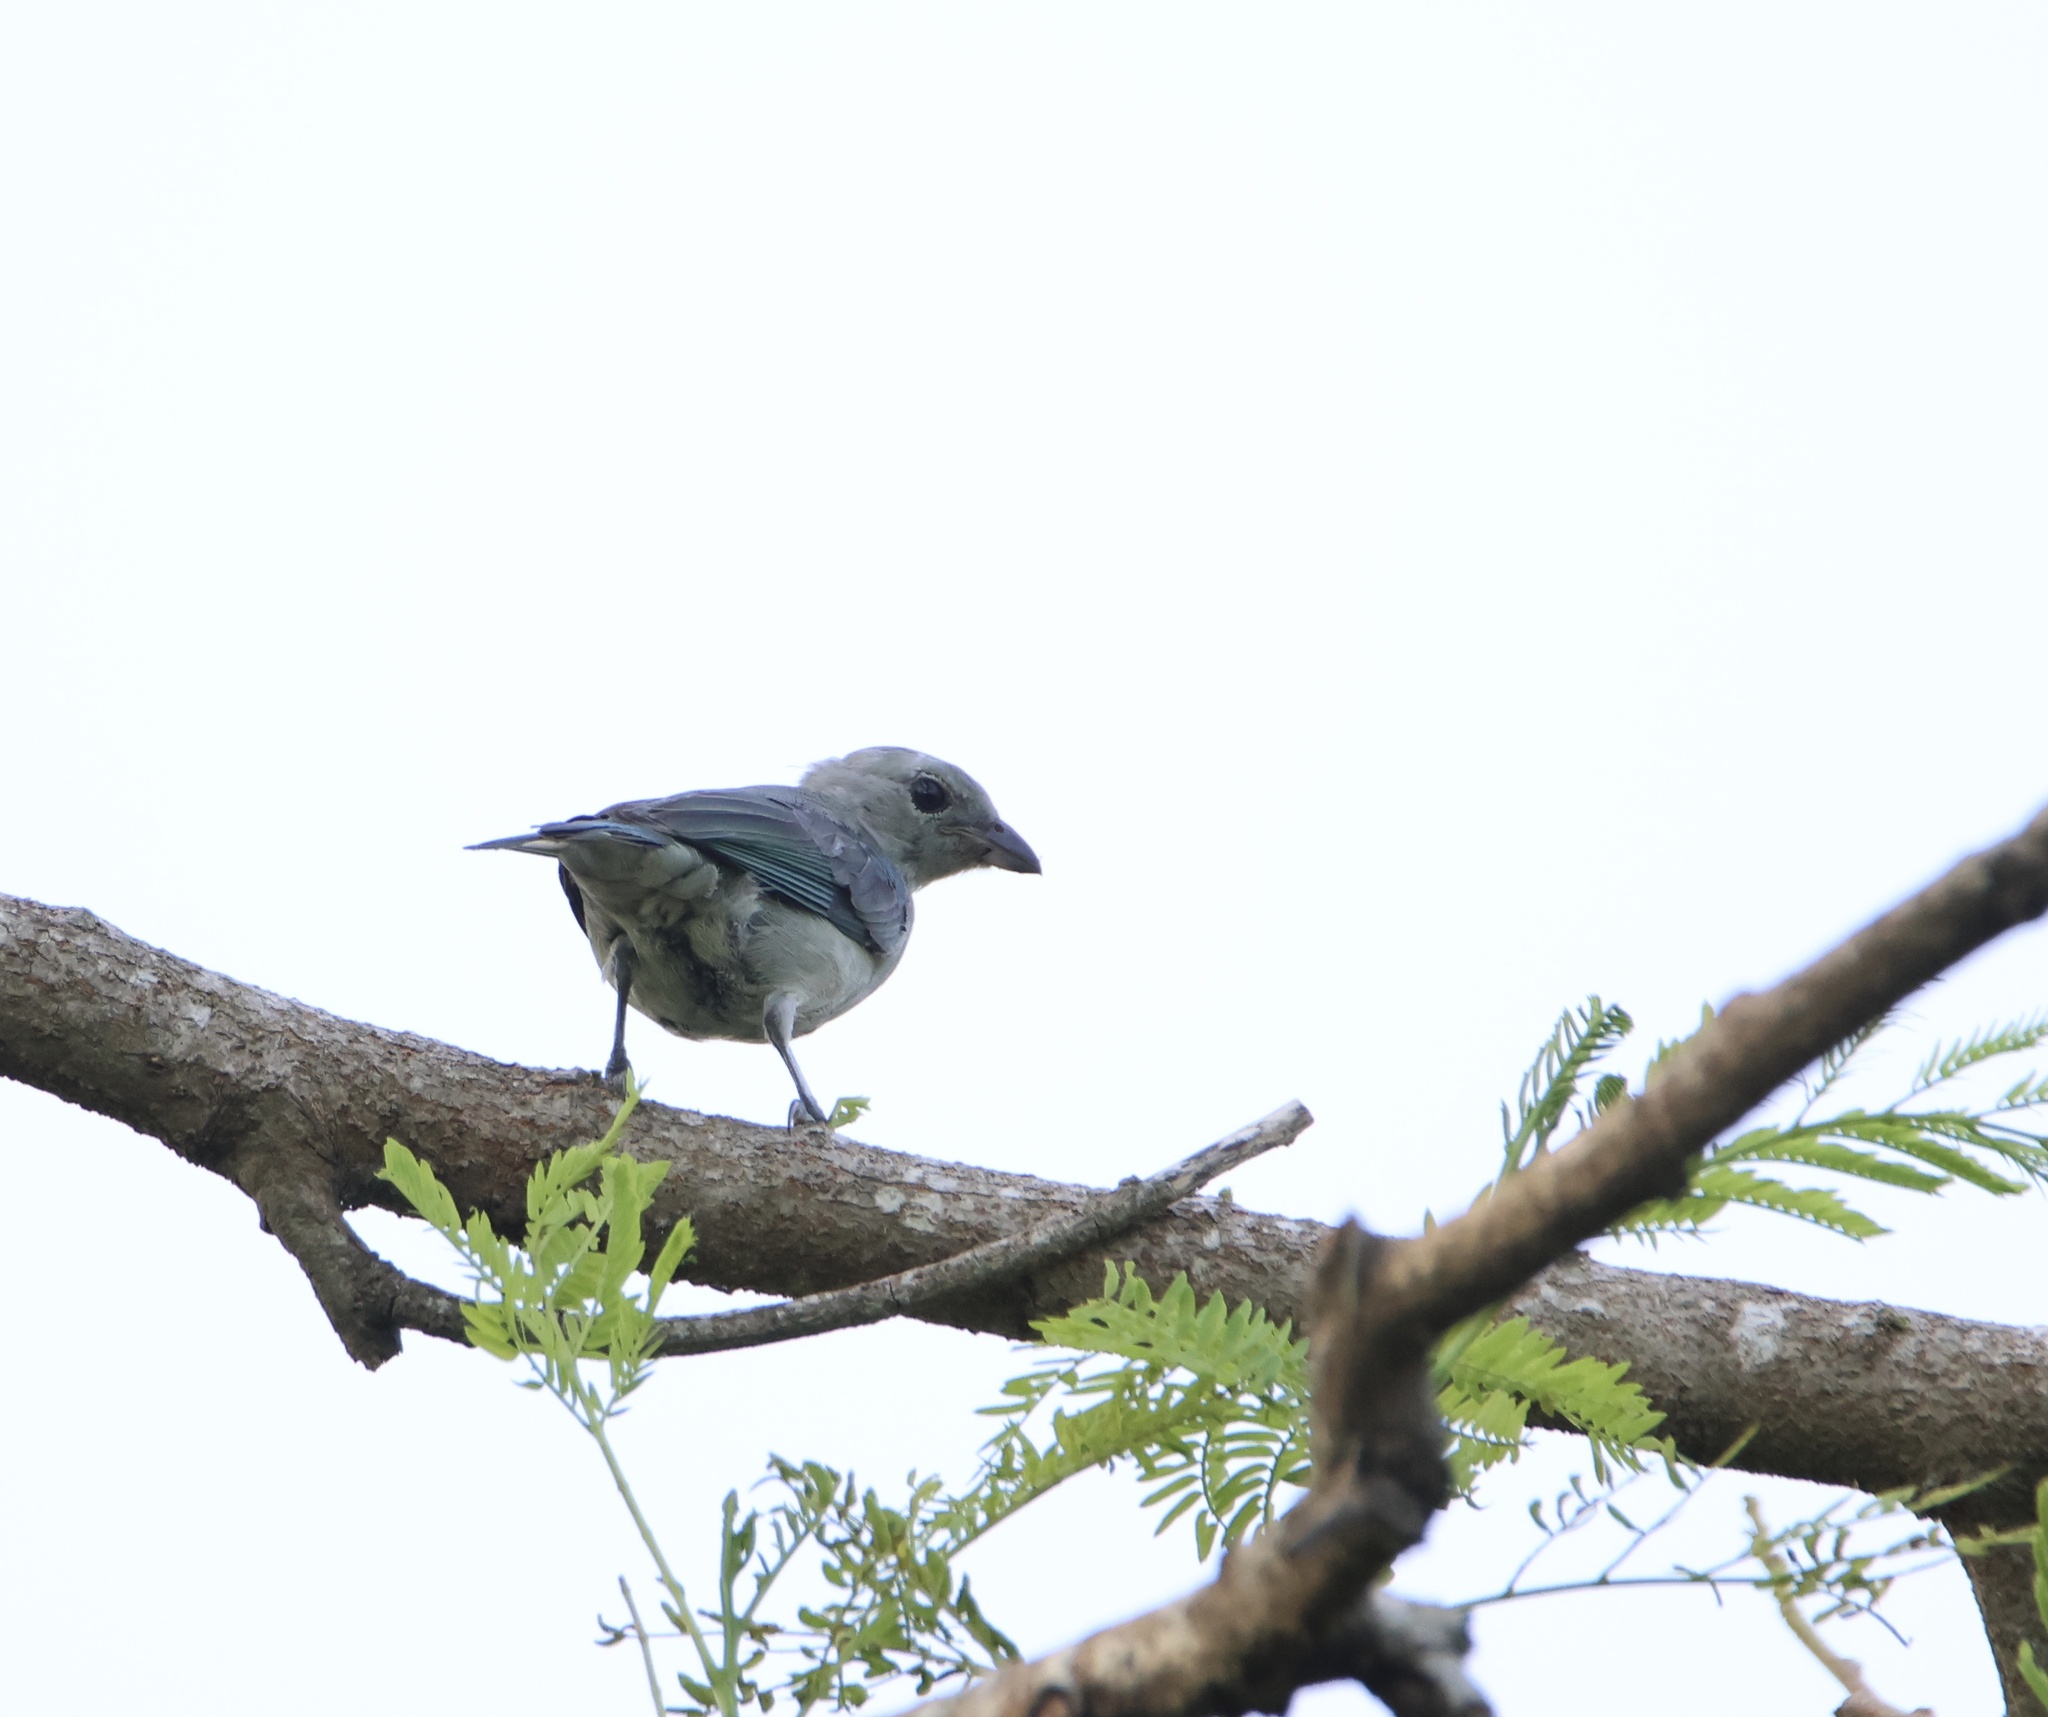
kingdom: Animalia
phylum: Chordata
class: Aves
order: Passeriformes
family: Thraupidae
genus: Thraupis
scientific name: Thraupis episcopus
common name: Blue-grey tanager
